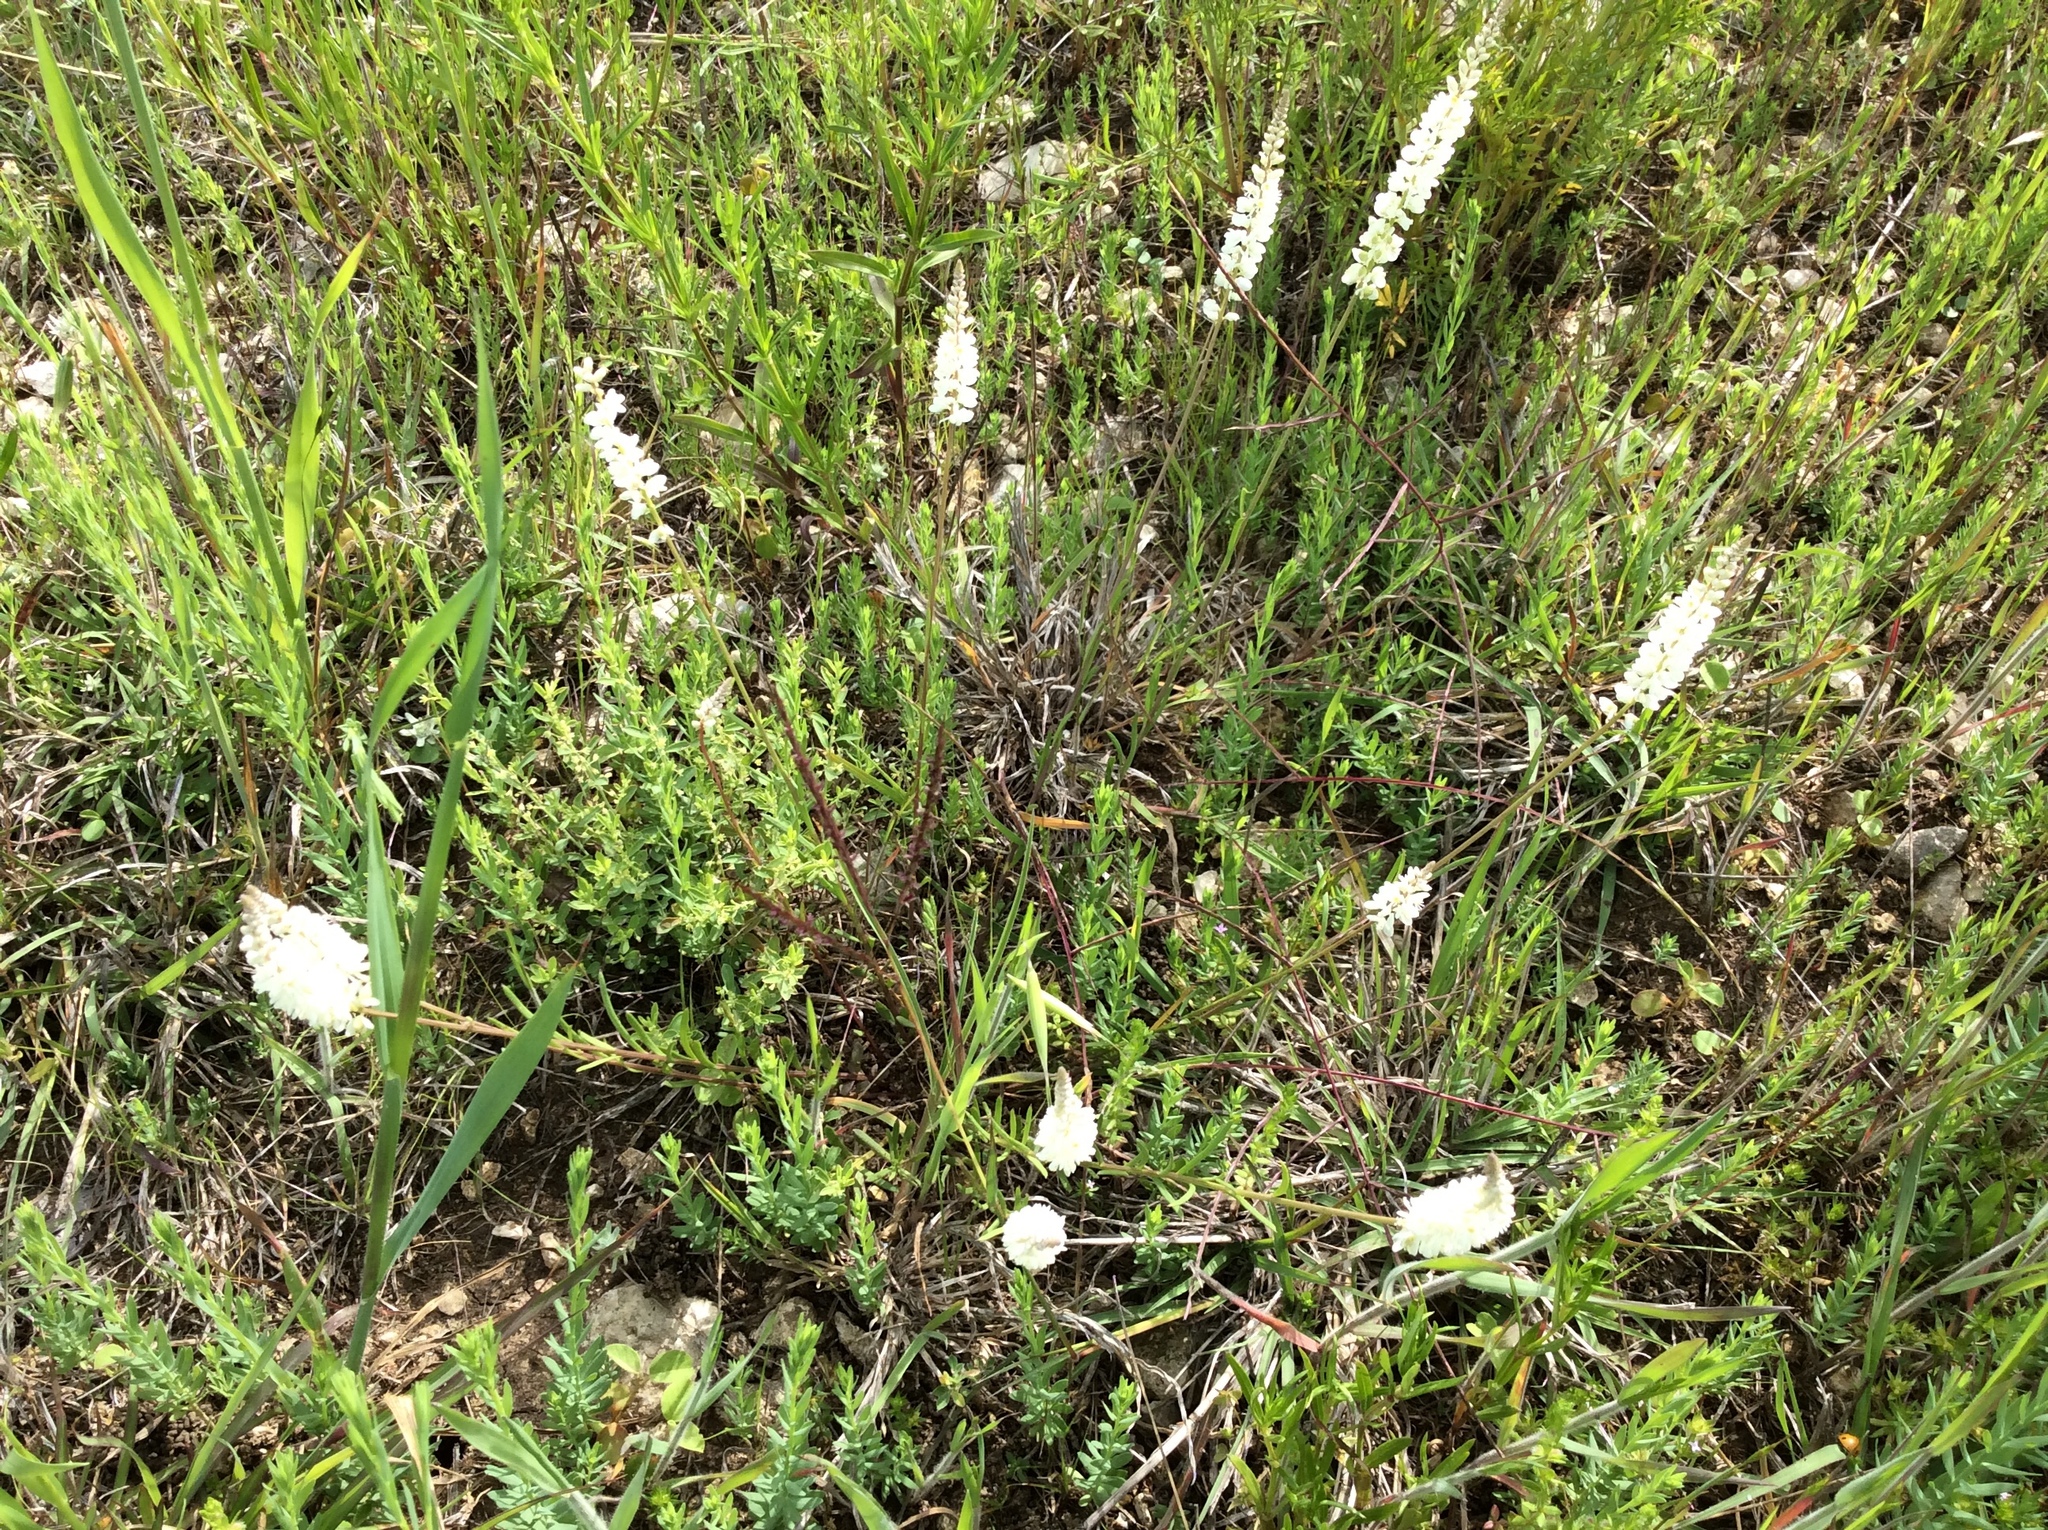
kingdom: Plantae
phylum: Tracheophyta
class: Magnoliopsida
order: Fabales
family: Polygalaceae
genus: Polygala
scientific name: Polygala alba
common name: White milkwort
